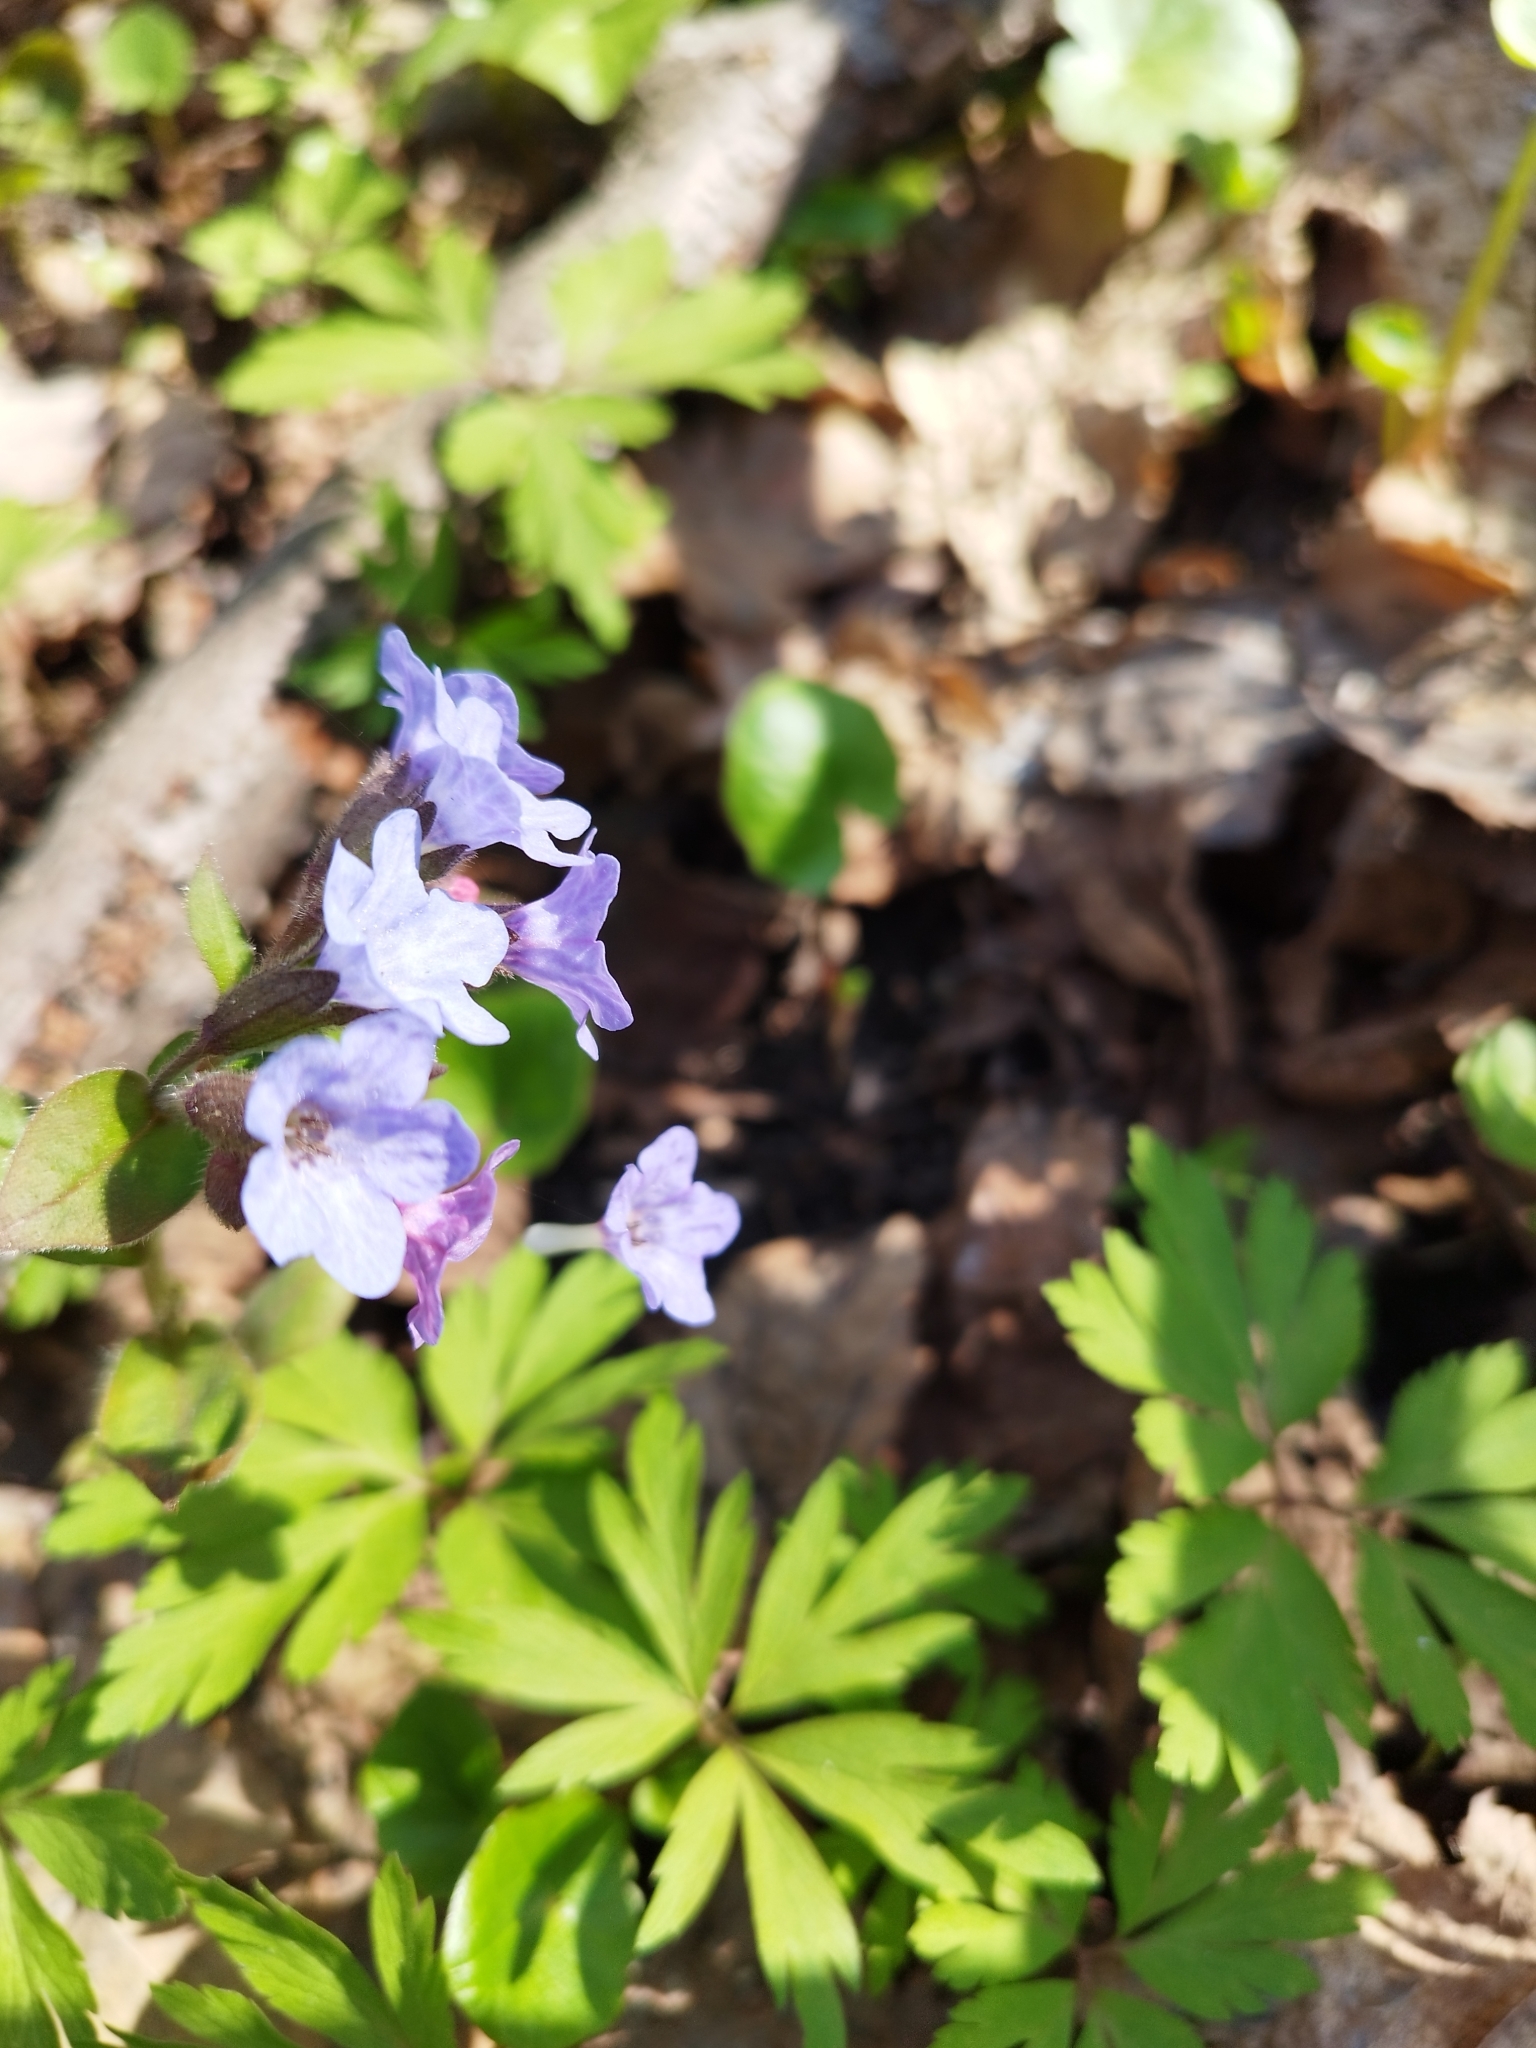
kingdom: Plantae
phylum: Tracheophyta
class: Magnoliopsida
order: Boraginales
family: Boraginaceae
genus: Pulmonaria
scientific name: Pulmonaria obscura
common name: Suffolk lungwort
